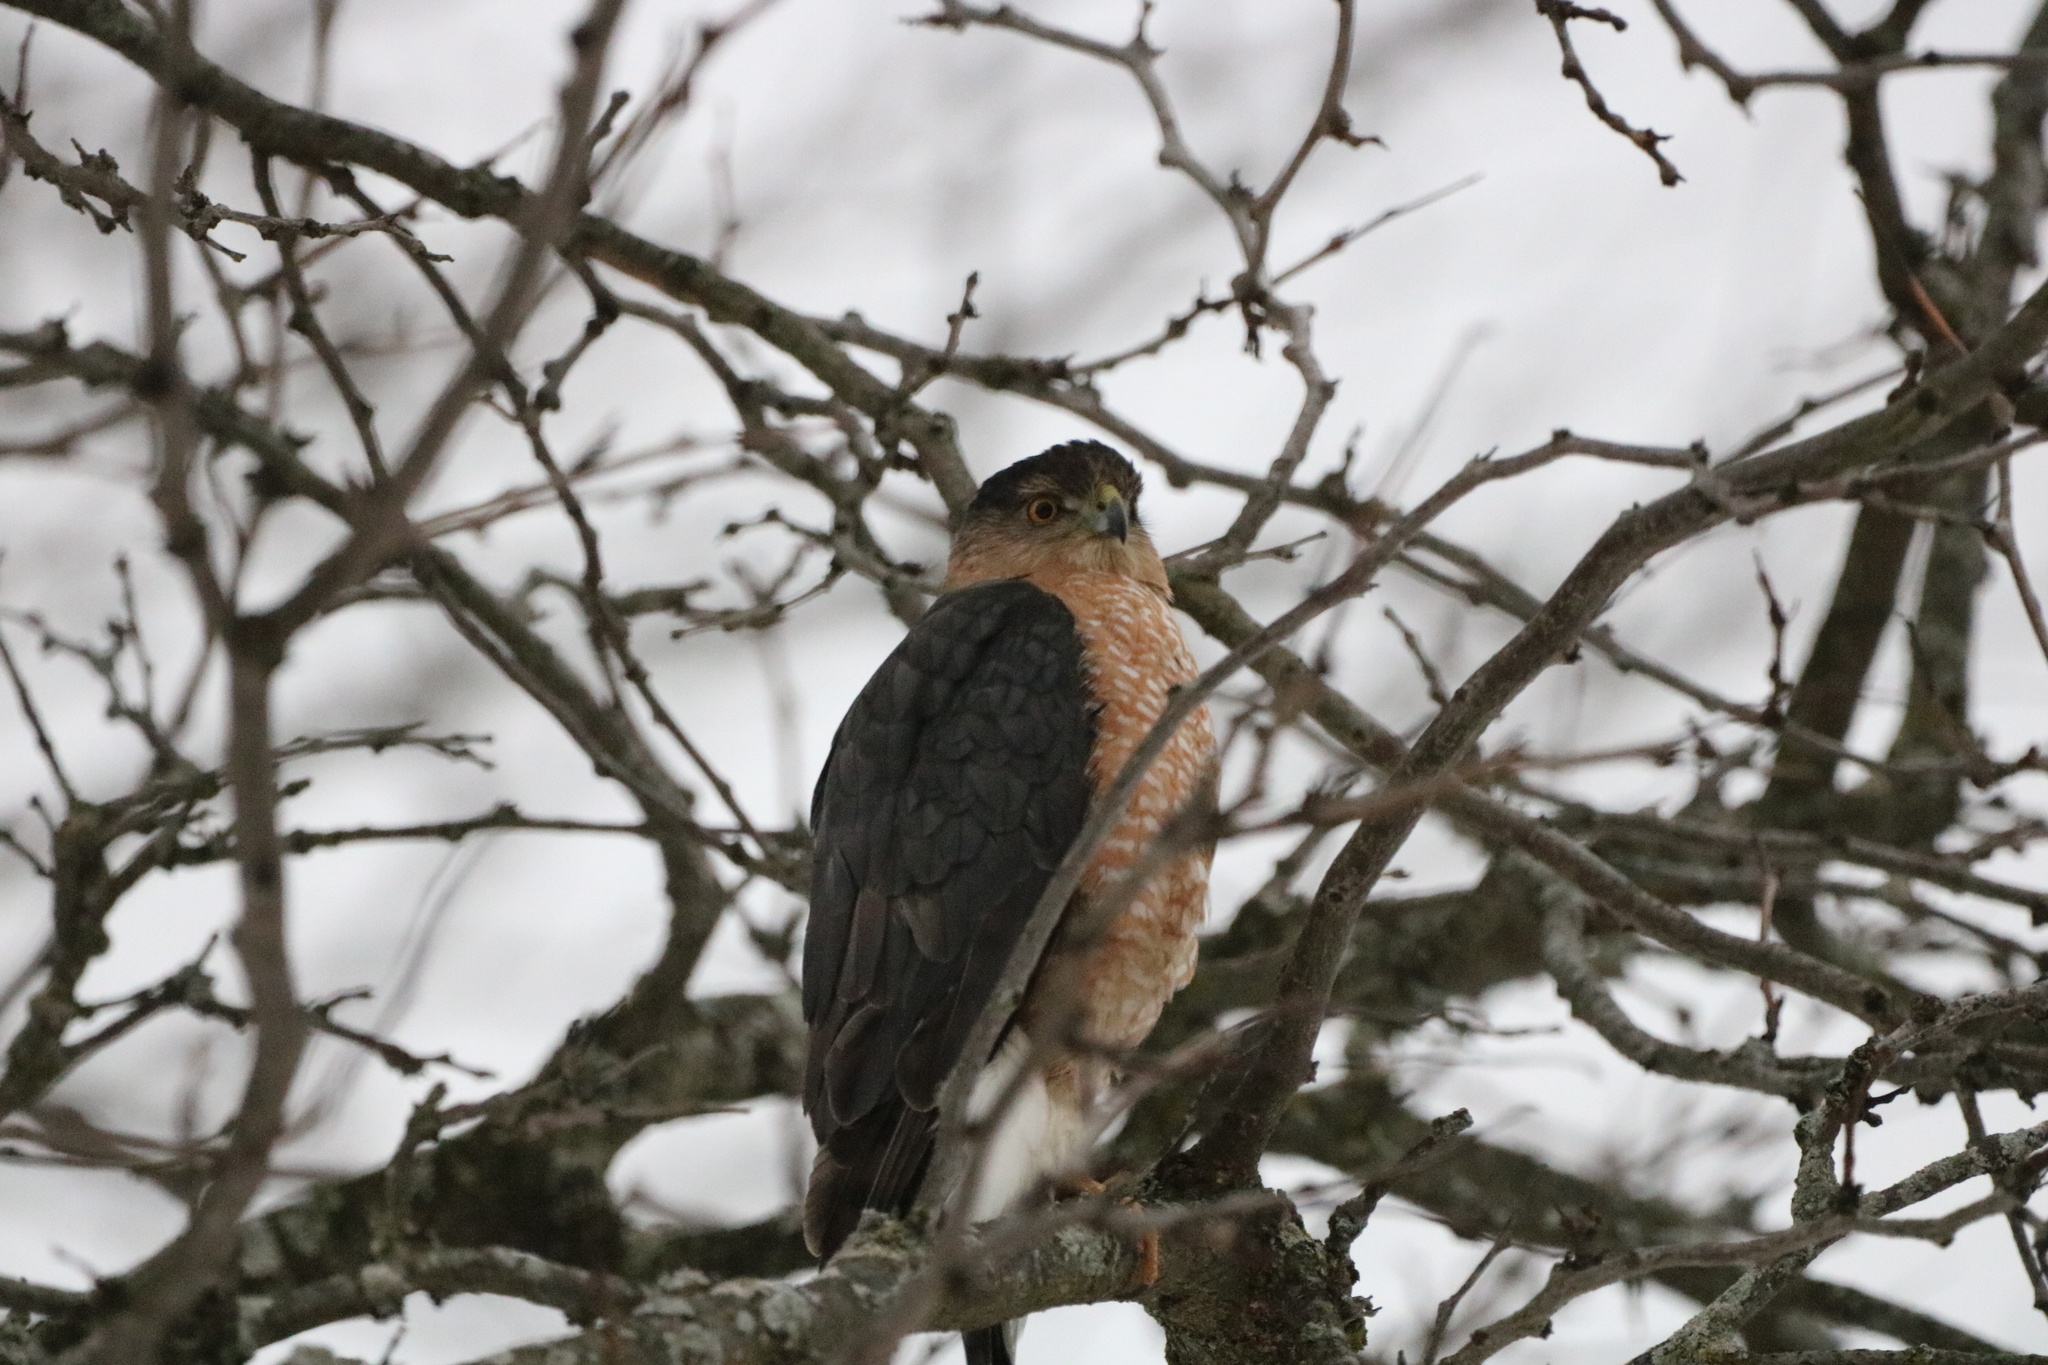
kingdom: Animalia
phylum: Chordata
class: Aves
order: Accipitriformes
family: Accipitridae
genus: Accipiter
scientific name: Accipiter cooperii
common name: Cooper's hawk
